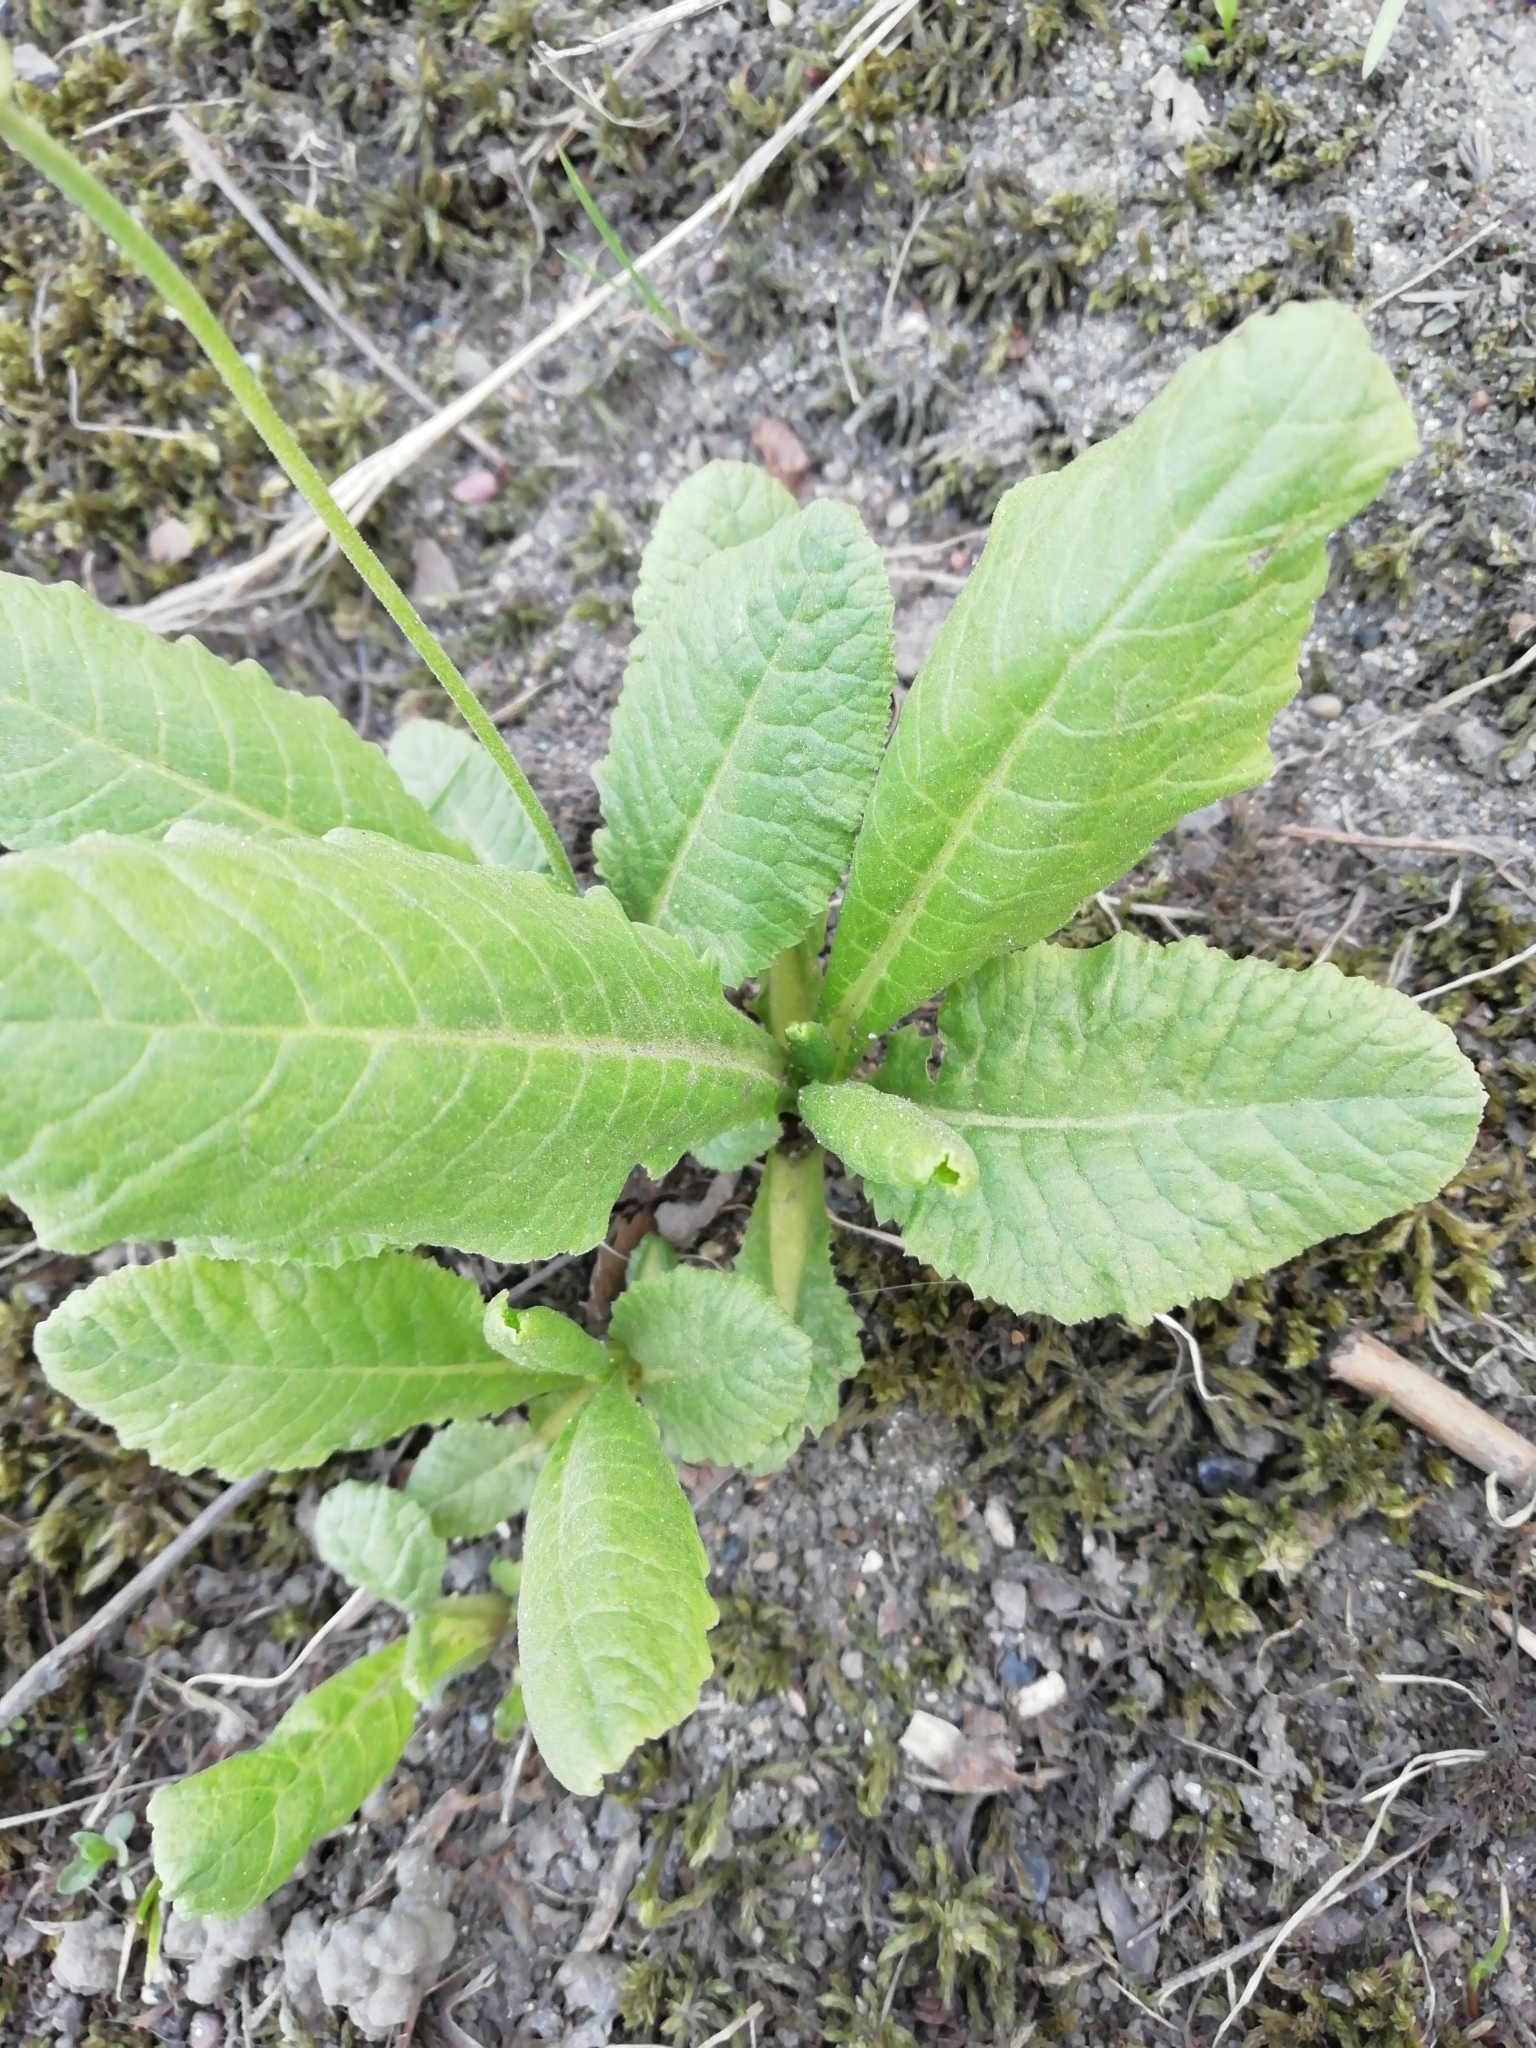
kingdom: Plantae
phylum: Tracheophyta
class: Magnoliopsida
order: Ericales
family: Primulaceae
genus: Primula
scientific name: Primula elatior
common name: Oxlip
